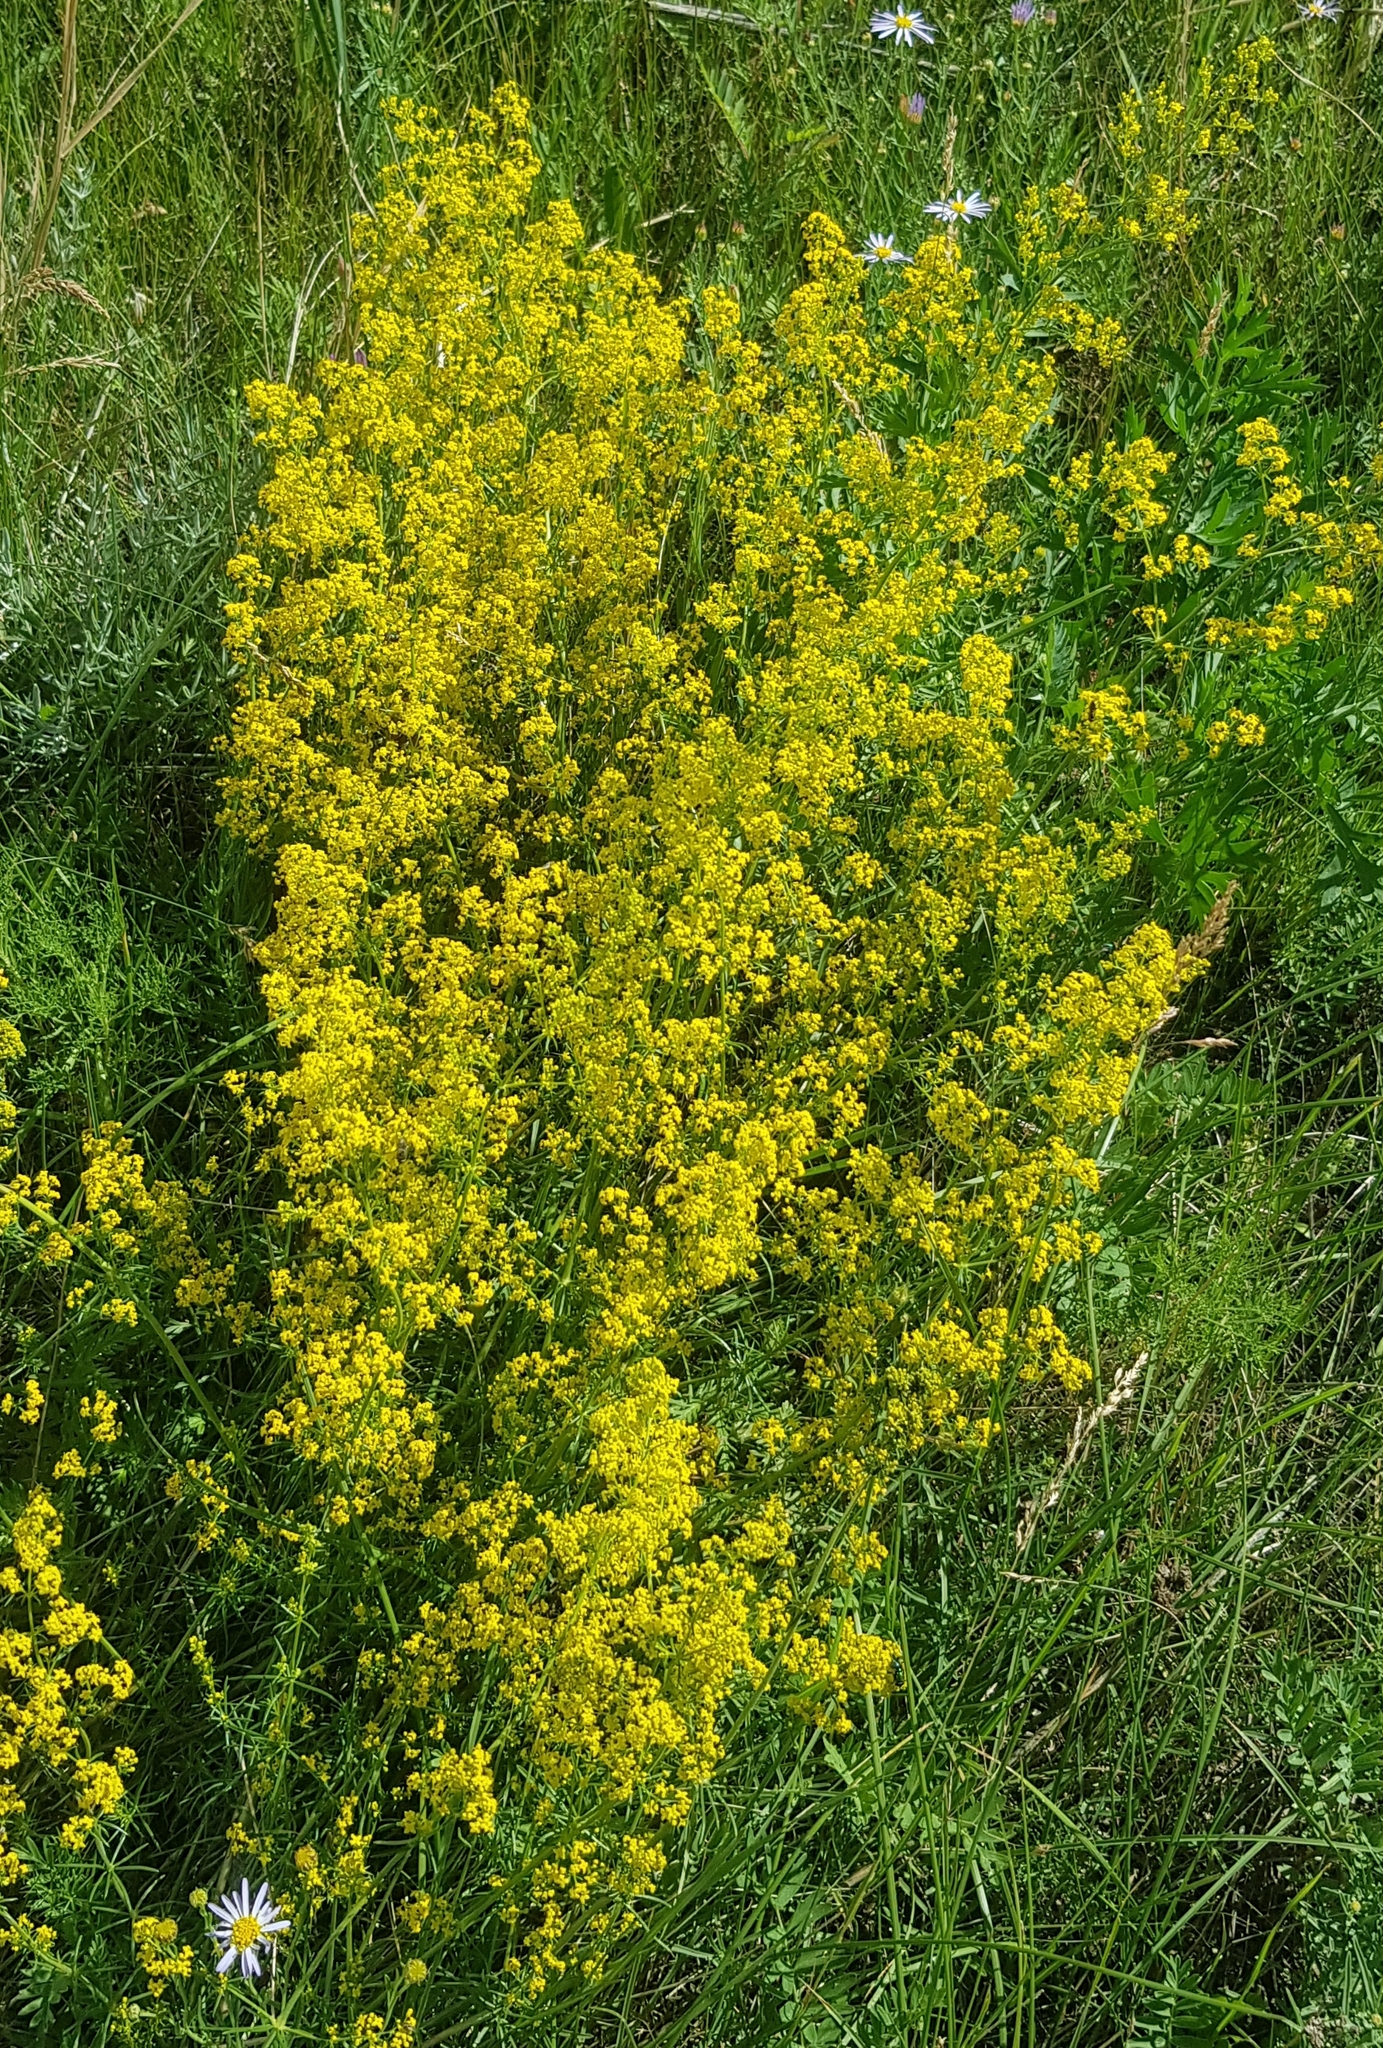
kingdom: Plantae
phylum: Tracheophyta
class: Magnoliopsida
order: Gentianales
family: Rubiaceae
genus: Galium
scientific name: Galium verum
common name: Lady's bedstraw
